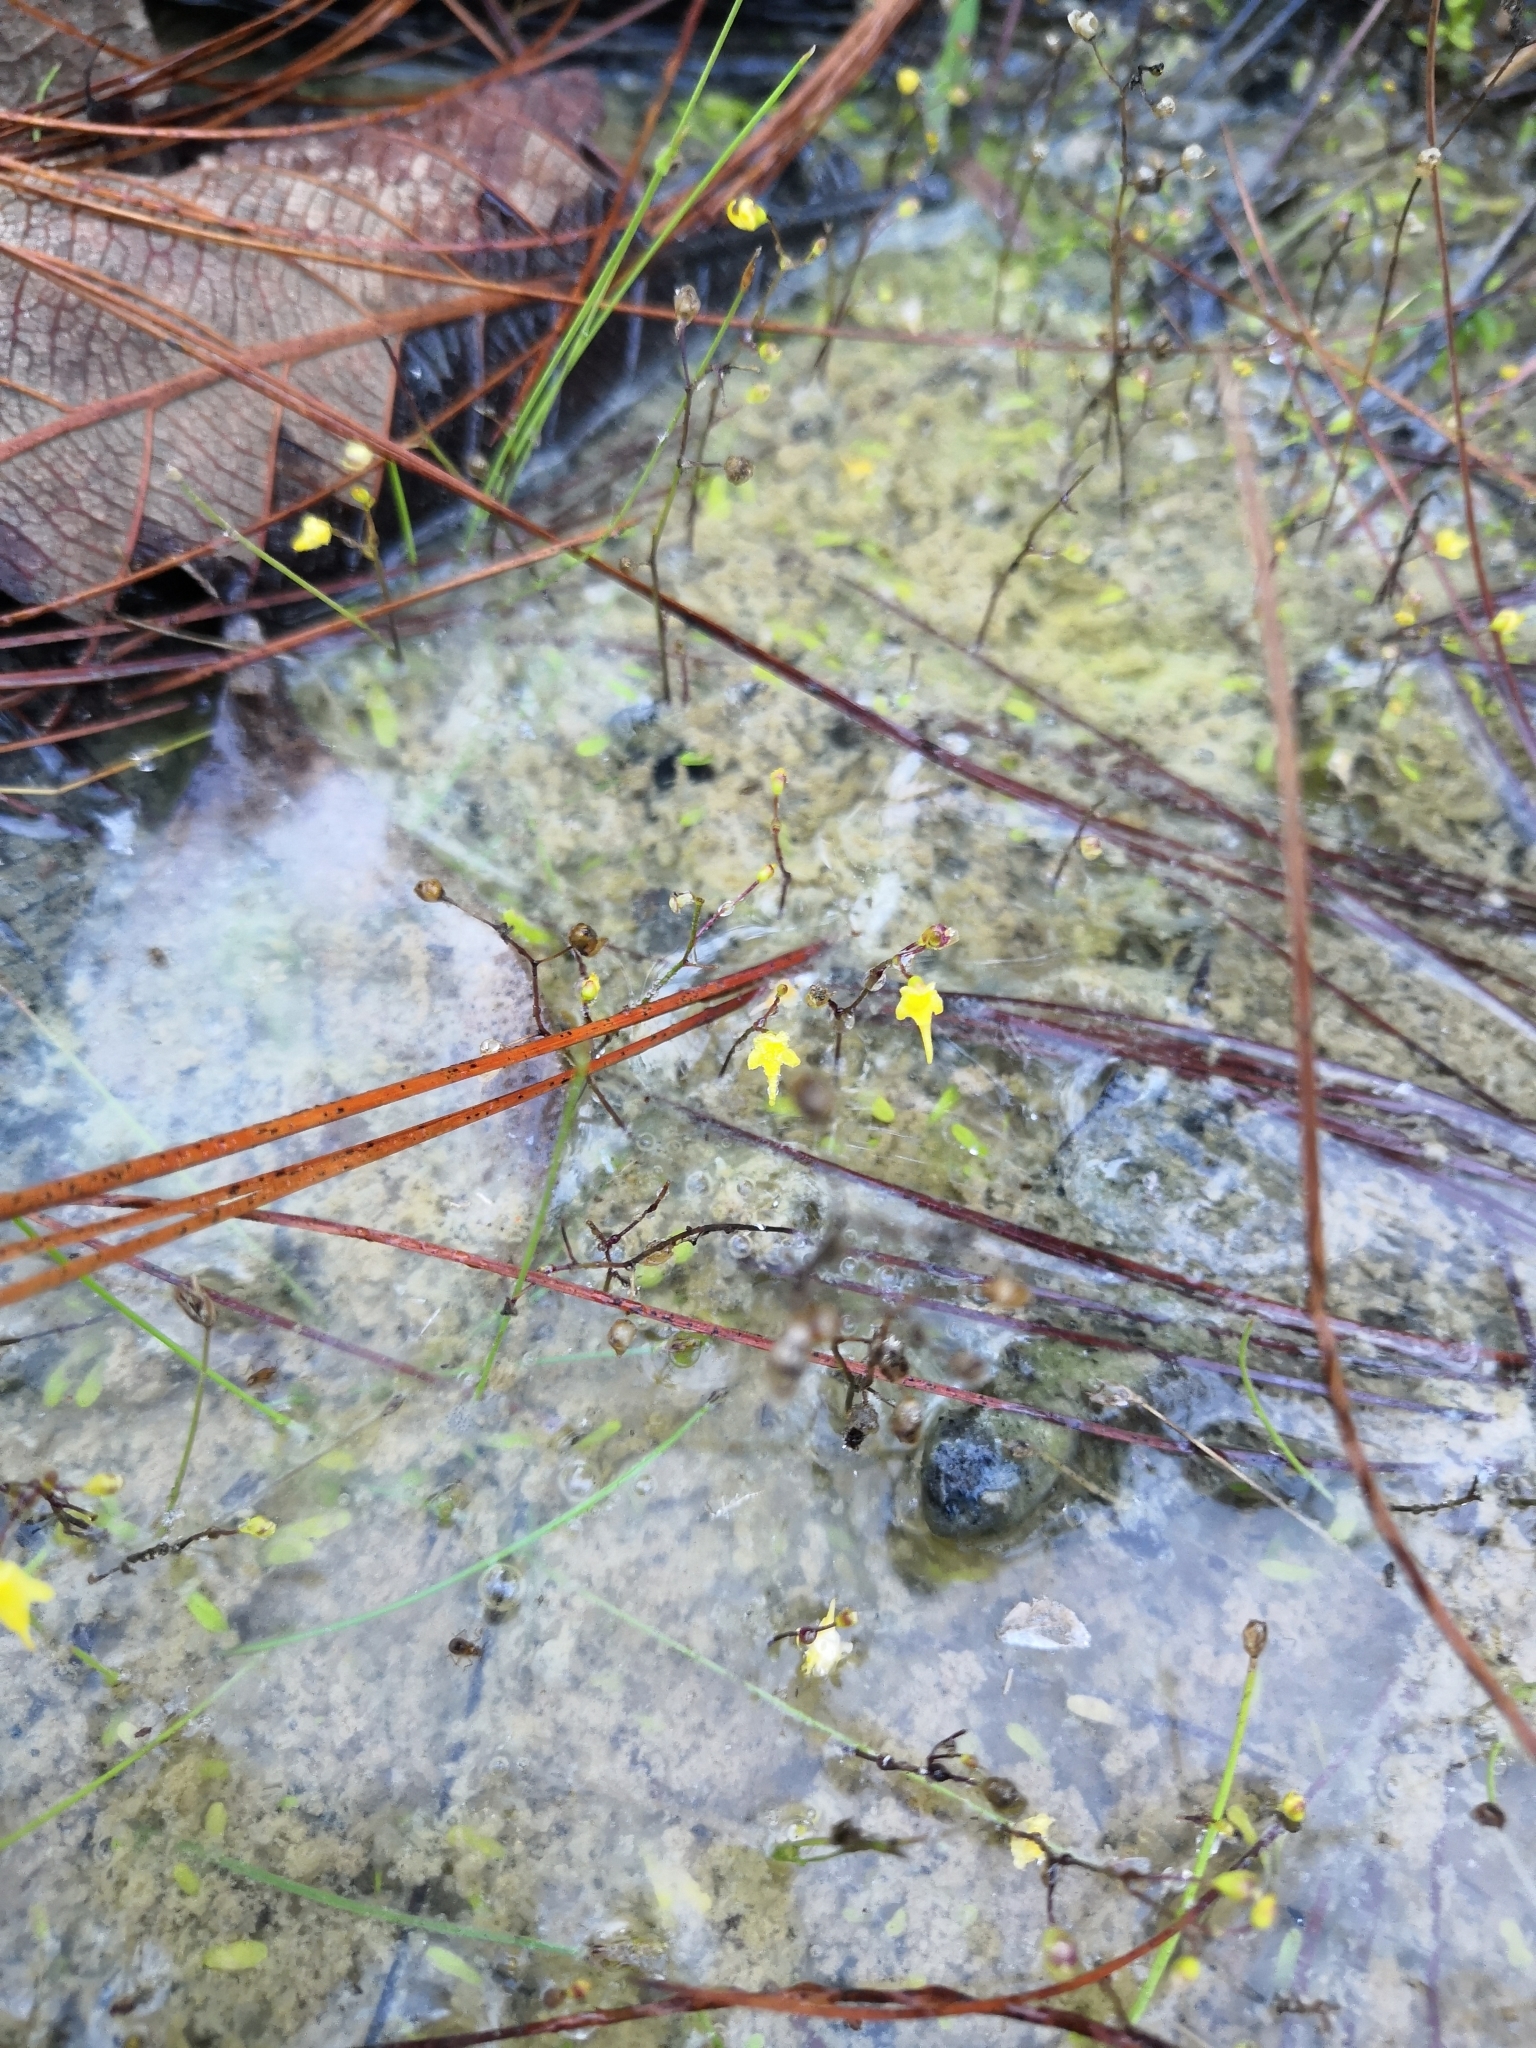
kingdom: Plantae
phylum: Tracheophyta
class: Magnoliopsida
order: Lamiales
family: Lentibulariaceae
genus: Utricularia
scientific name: Utricularia pusilla
